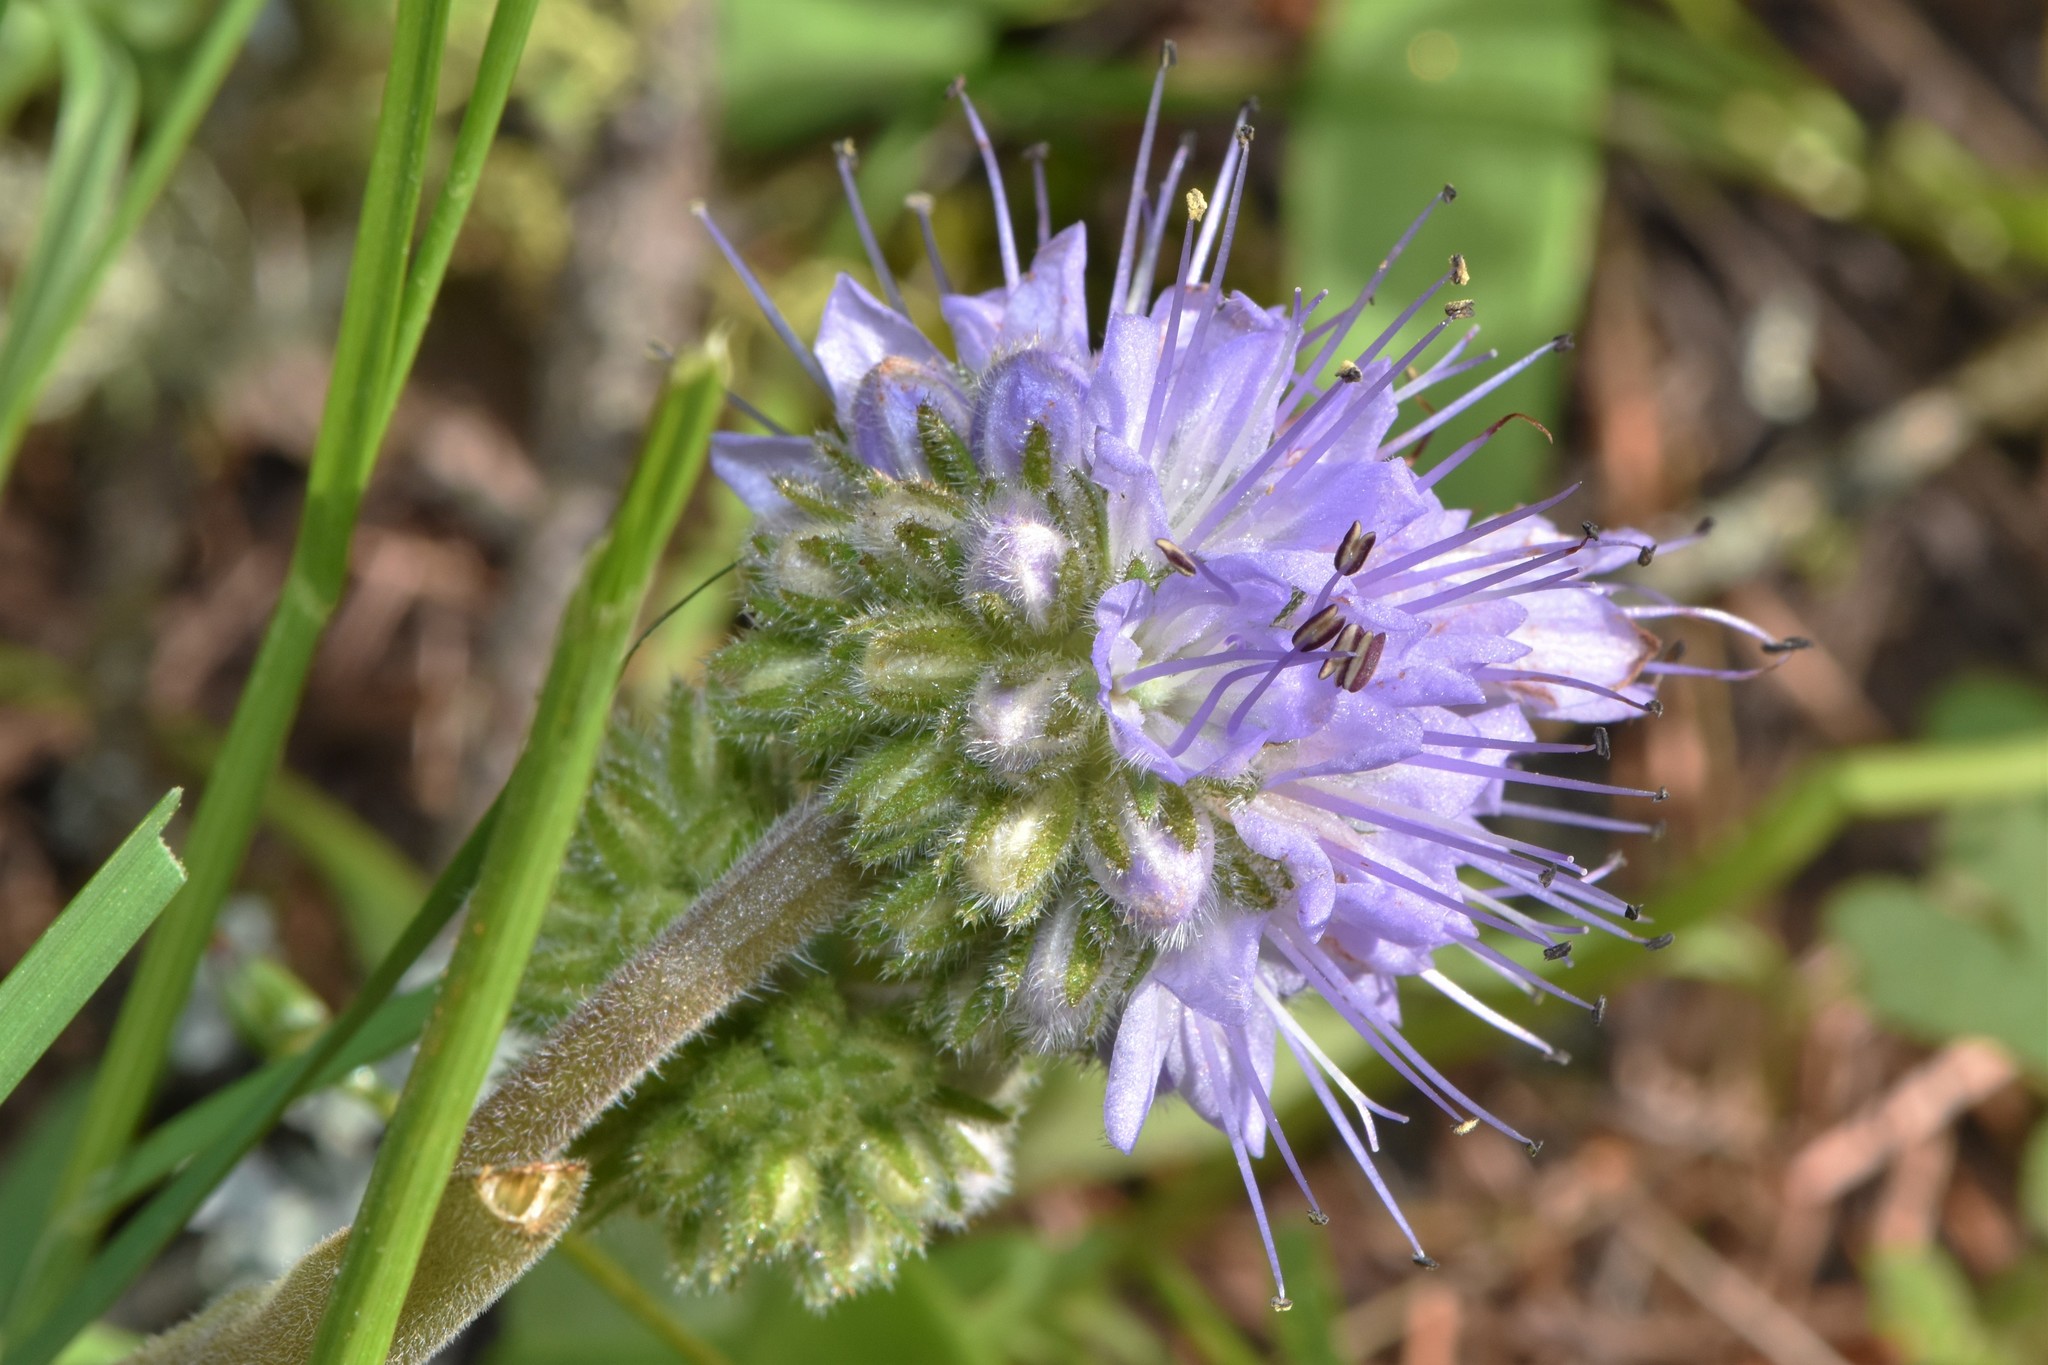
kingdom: Plantae
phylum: Tracheophyta
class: Magnoliopsida
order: Boraginales
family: Hydrophyllaceae
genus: Hydrophyllum
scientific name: Hydrophyllum capitatum
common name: Woollen-breeches
